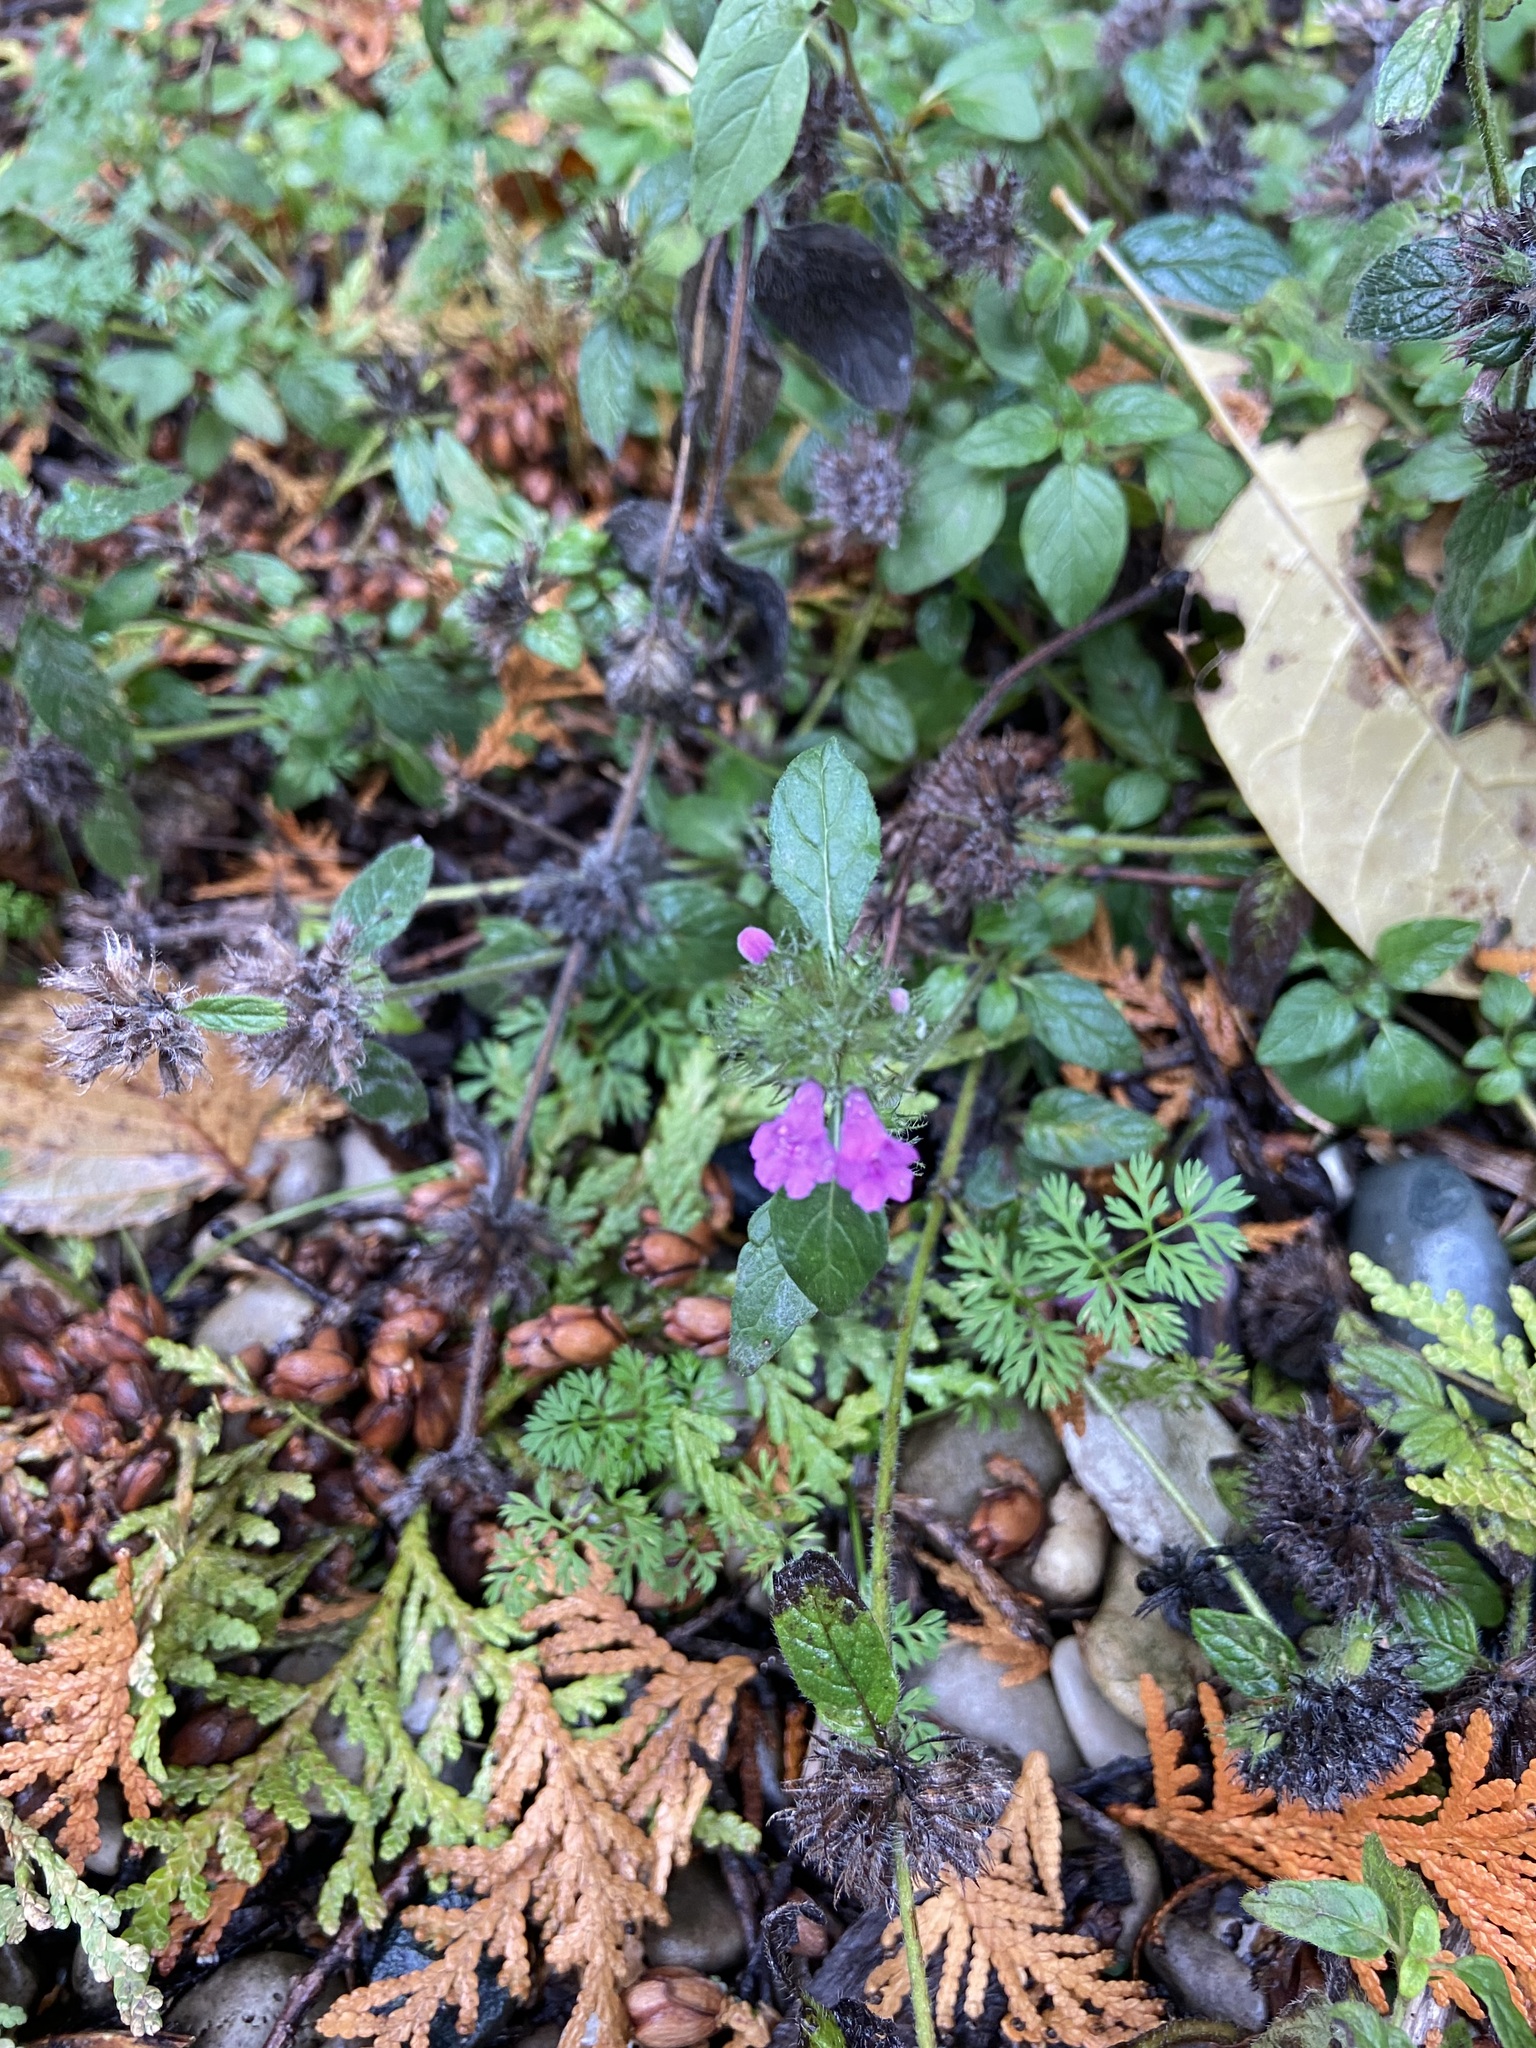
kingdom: Plantae
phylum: Tracheophyta
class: Magnoliopsida
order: Lamiales
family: Lamiaceae
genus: Clinopodium
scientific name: Clinopodium vulgare
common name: Wild basil
